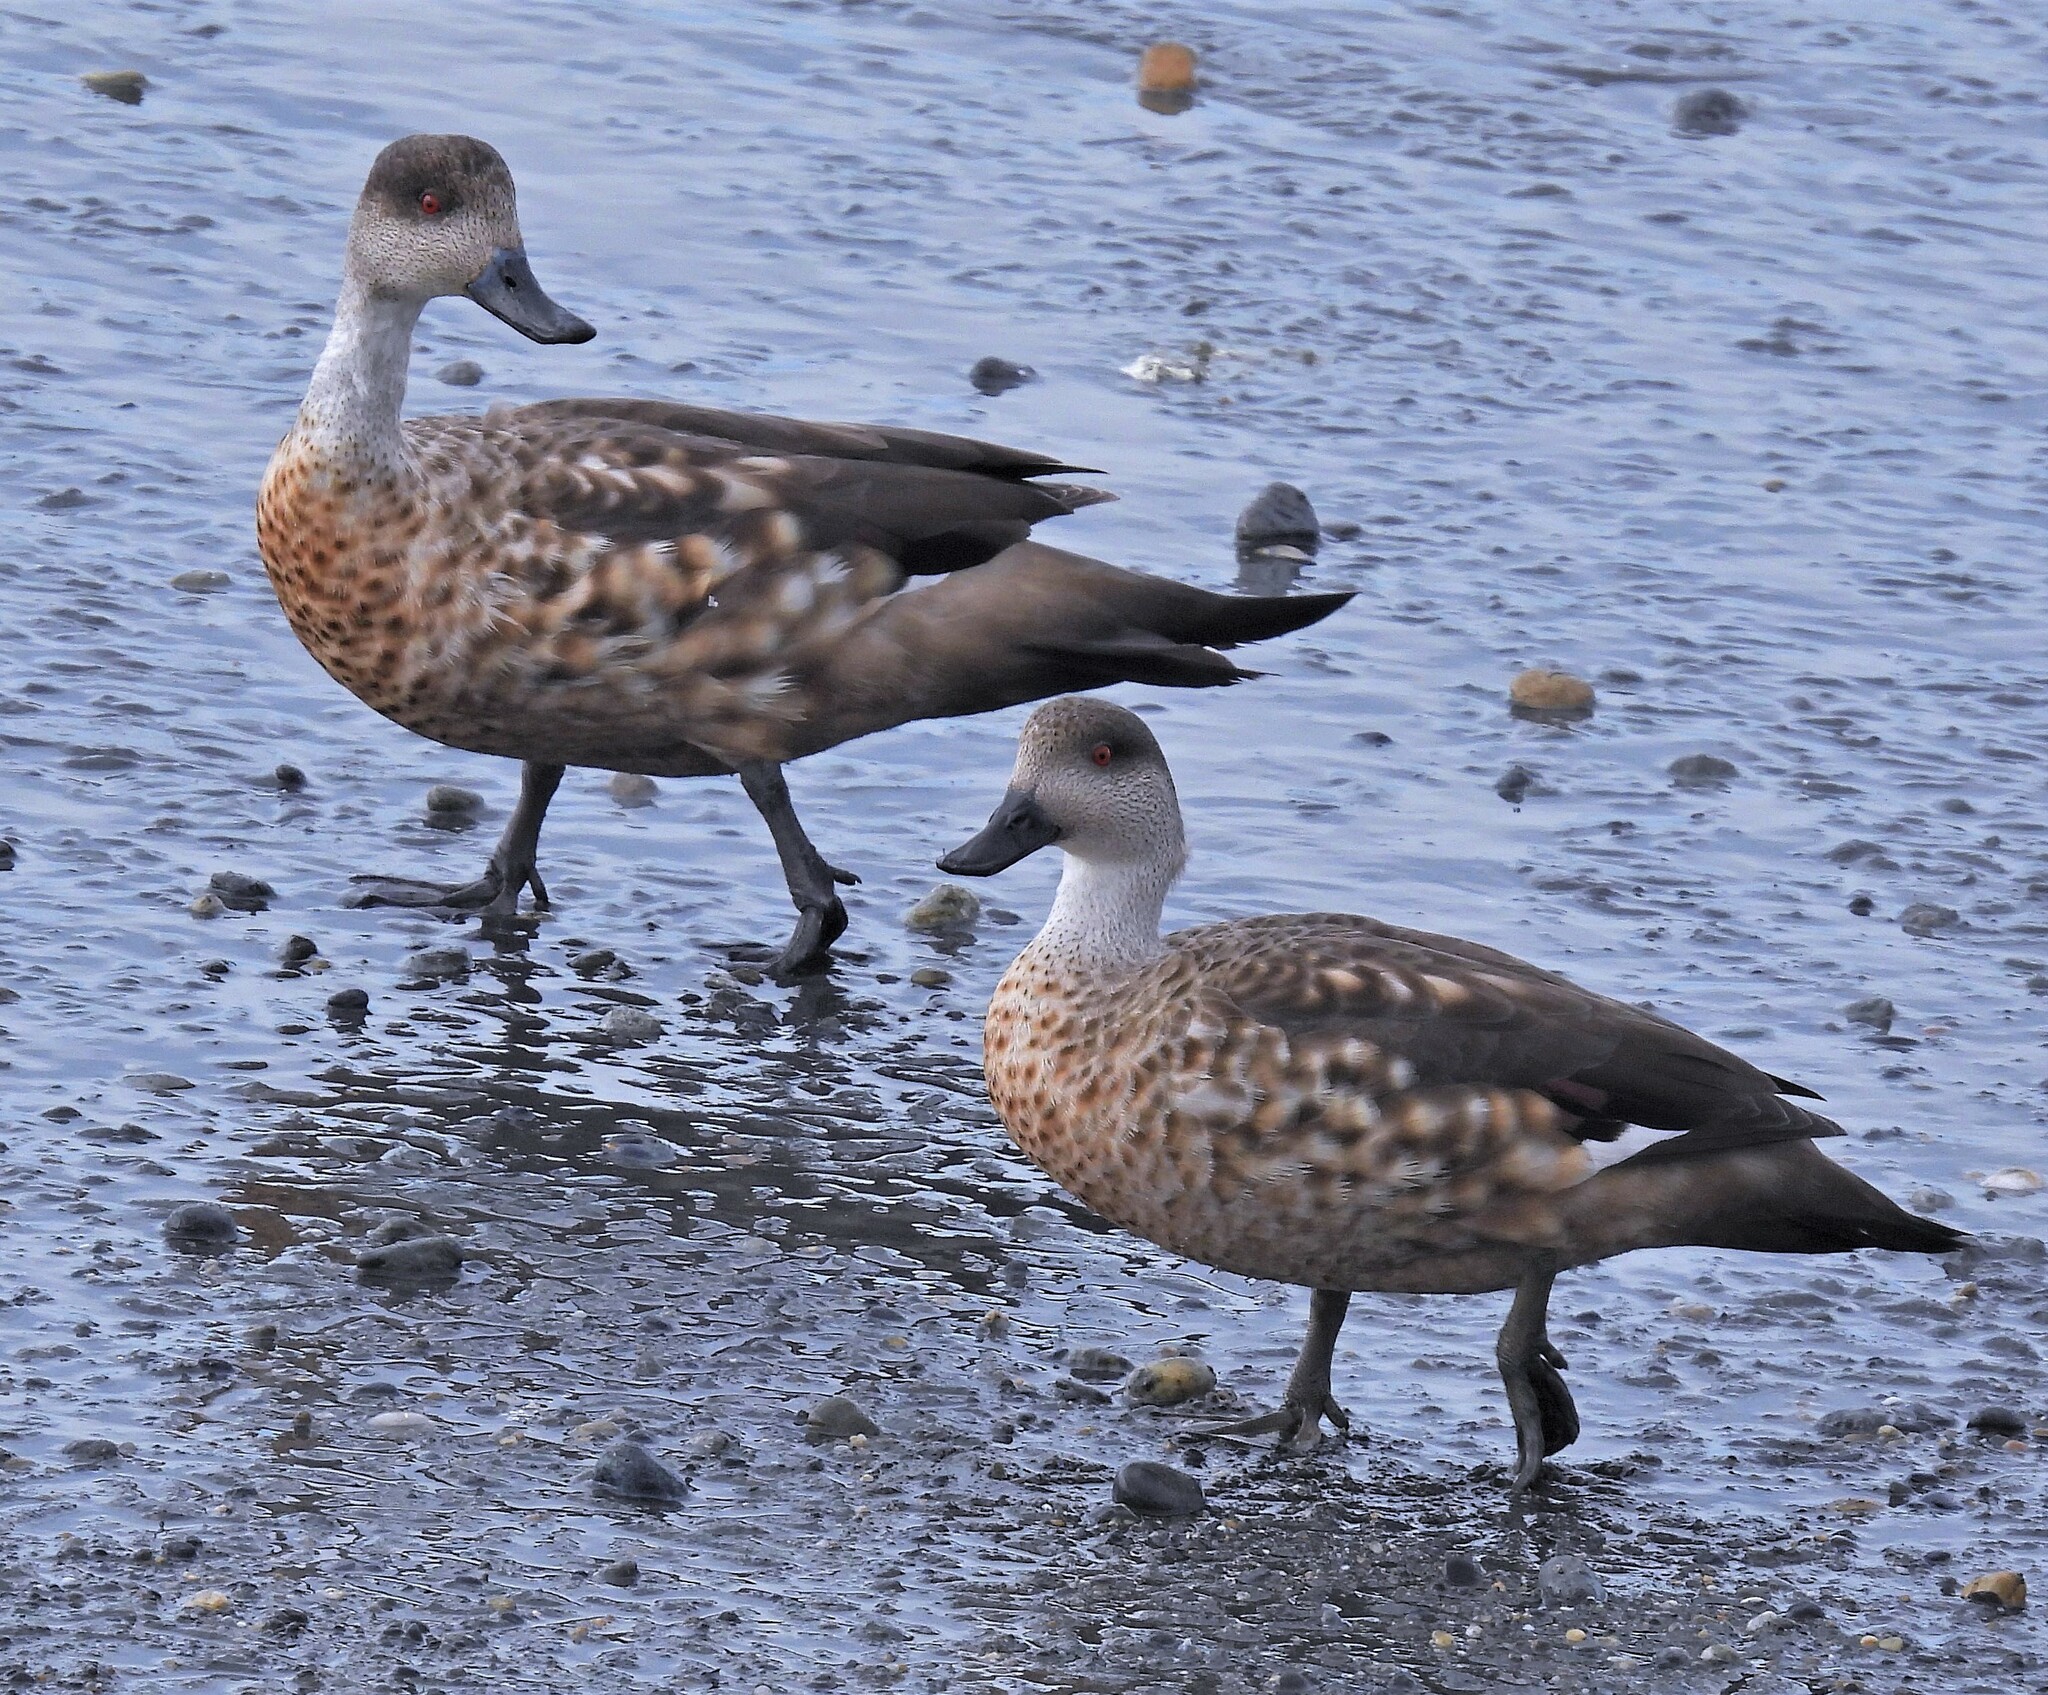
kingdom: Animalia
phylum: Chordata
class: Aves
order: Anseriformes
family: Anatidae
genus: Lophonetta
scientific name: Lophonetta specularioides
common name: Crested duck
